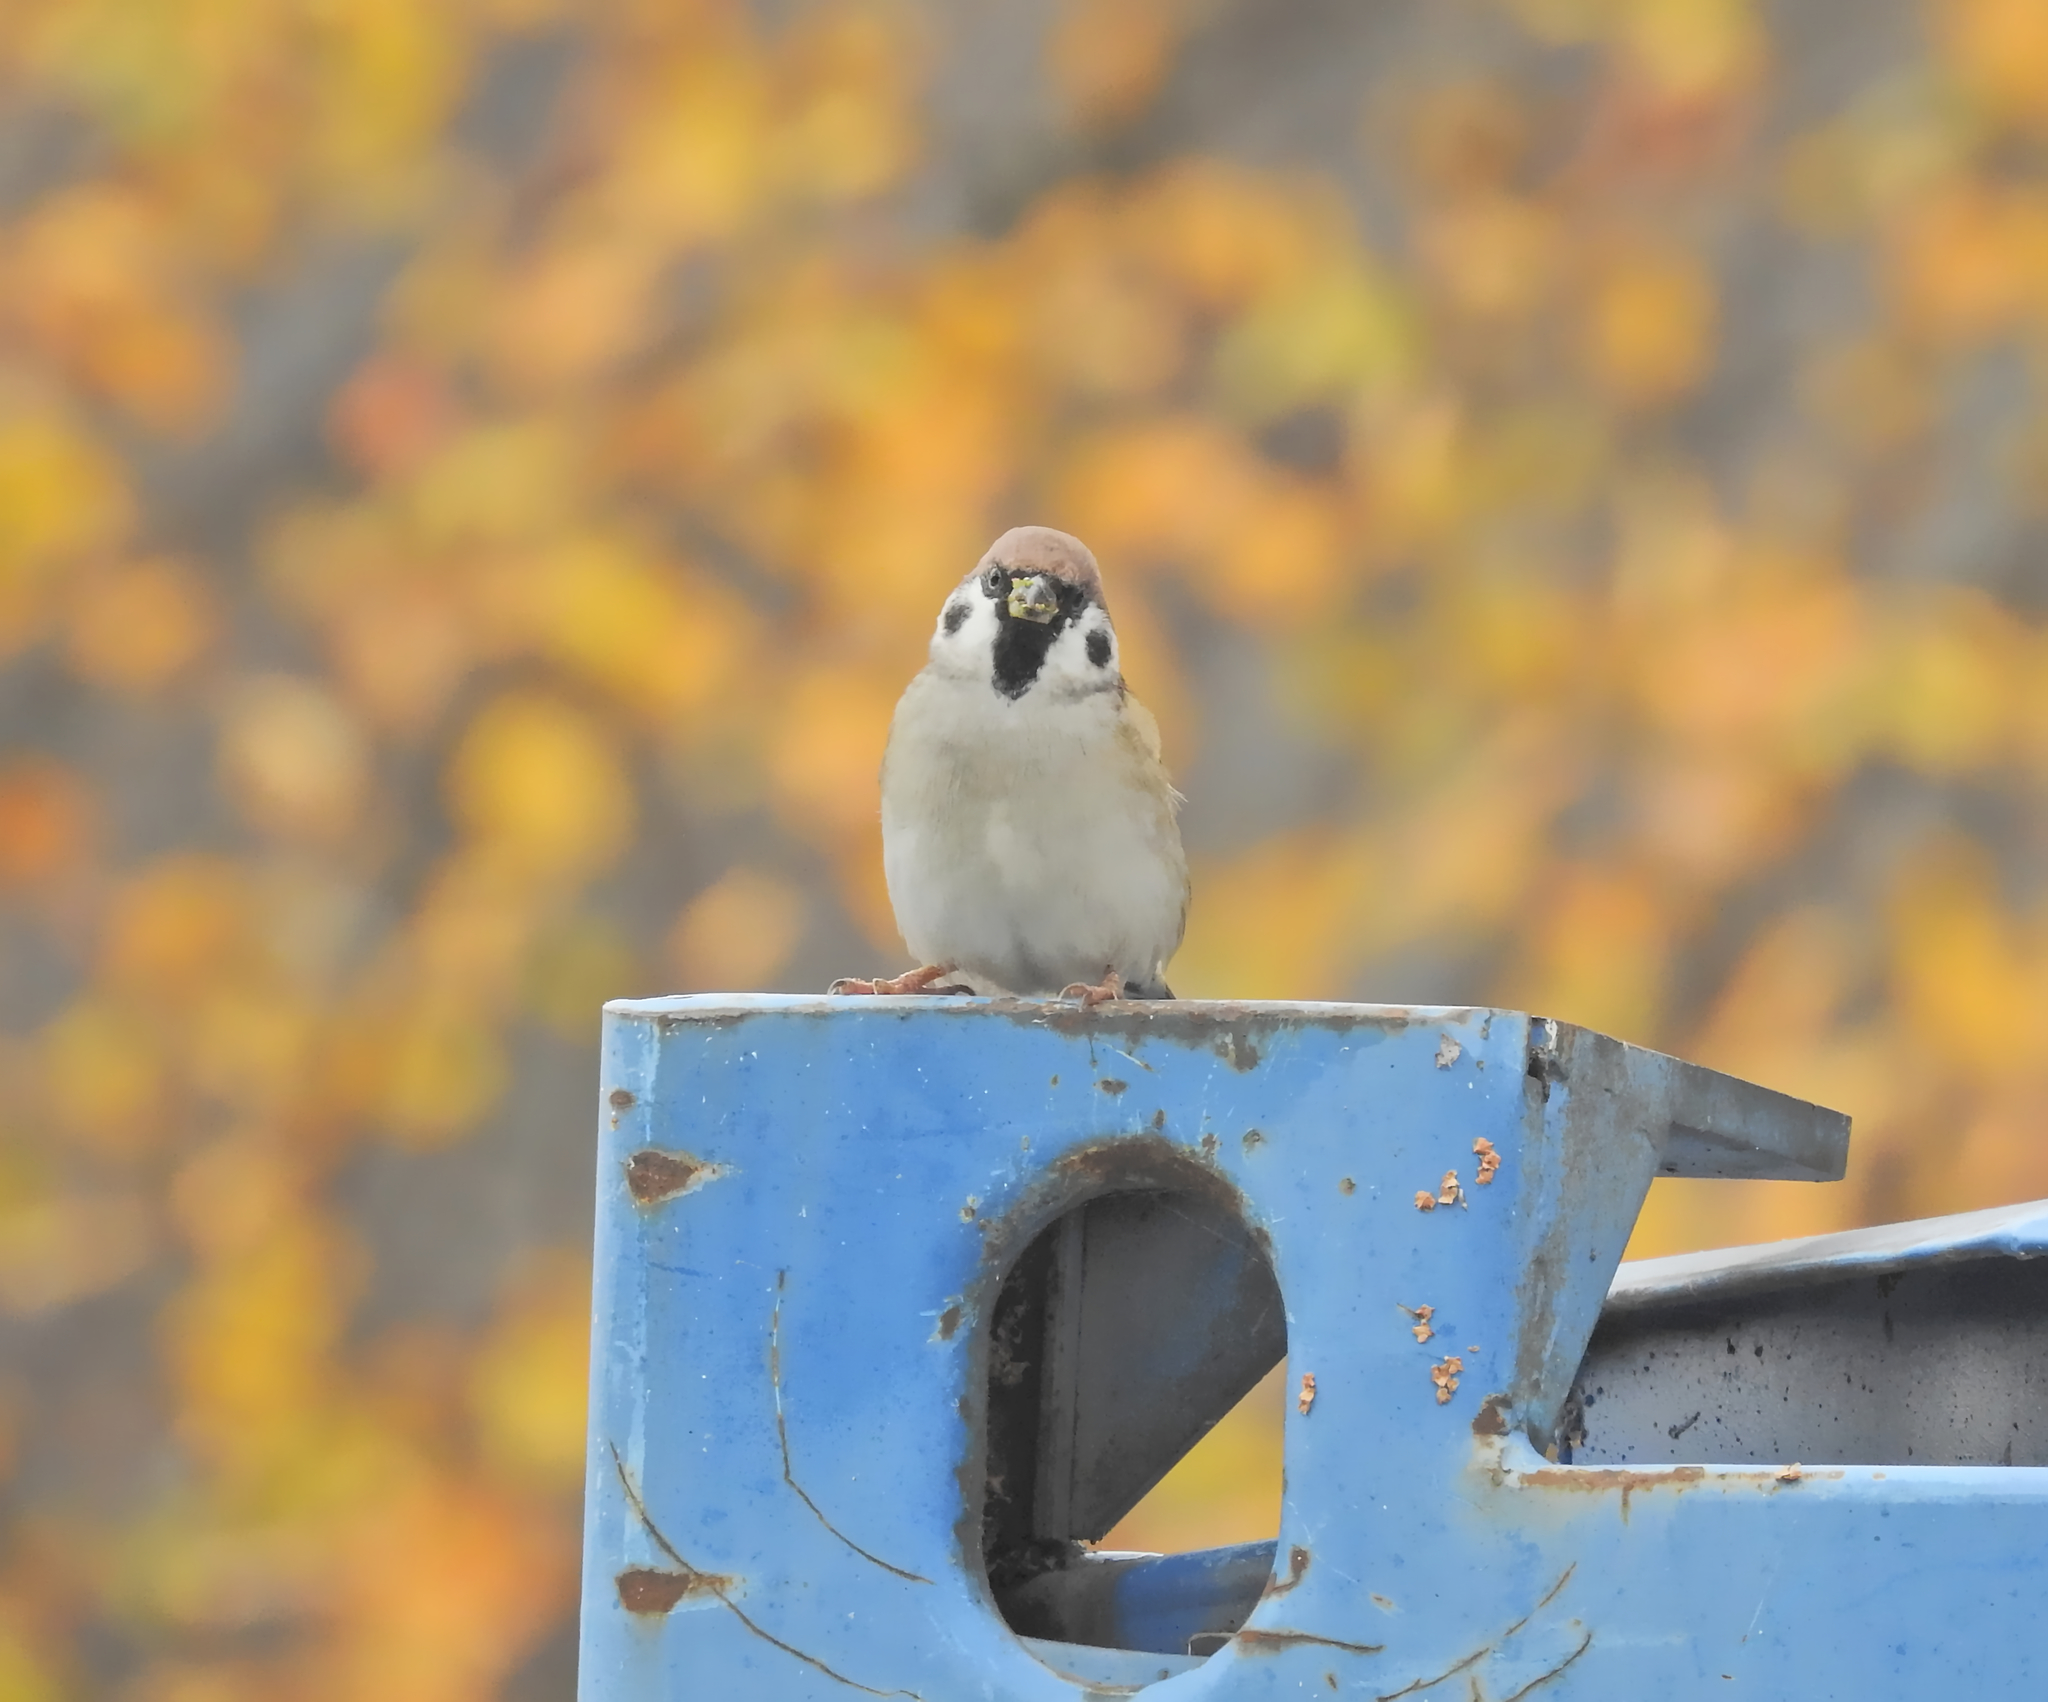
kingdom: Animalia
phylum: Chordata
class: Aves
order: Passeriformes
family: Passeridae
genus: Passer
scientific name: Passer montanus
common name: Eurasian tree sparrow
